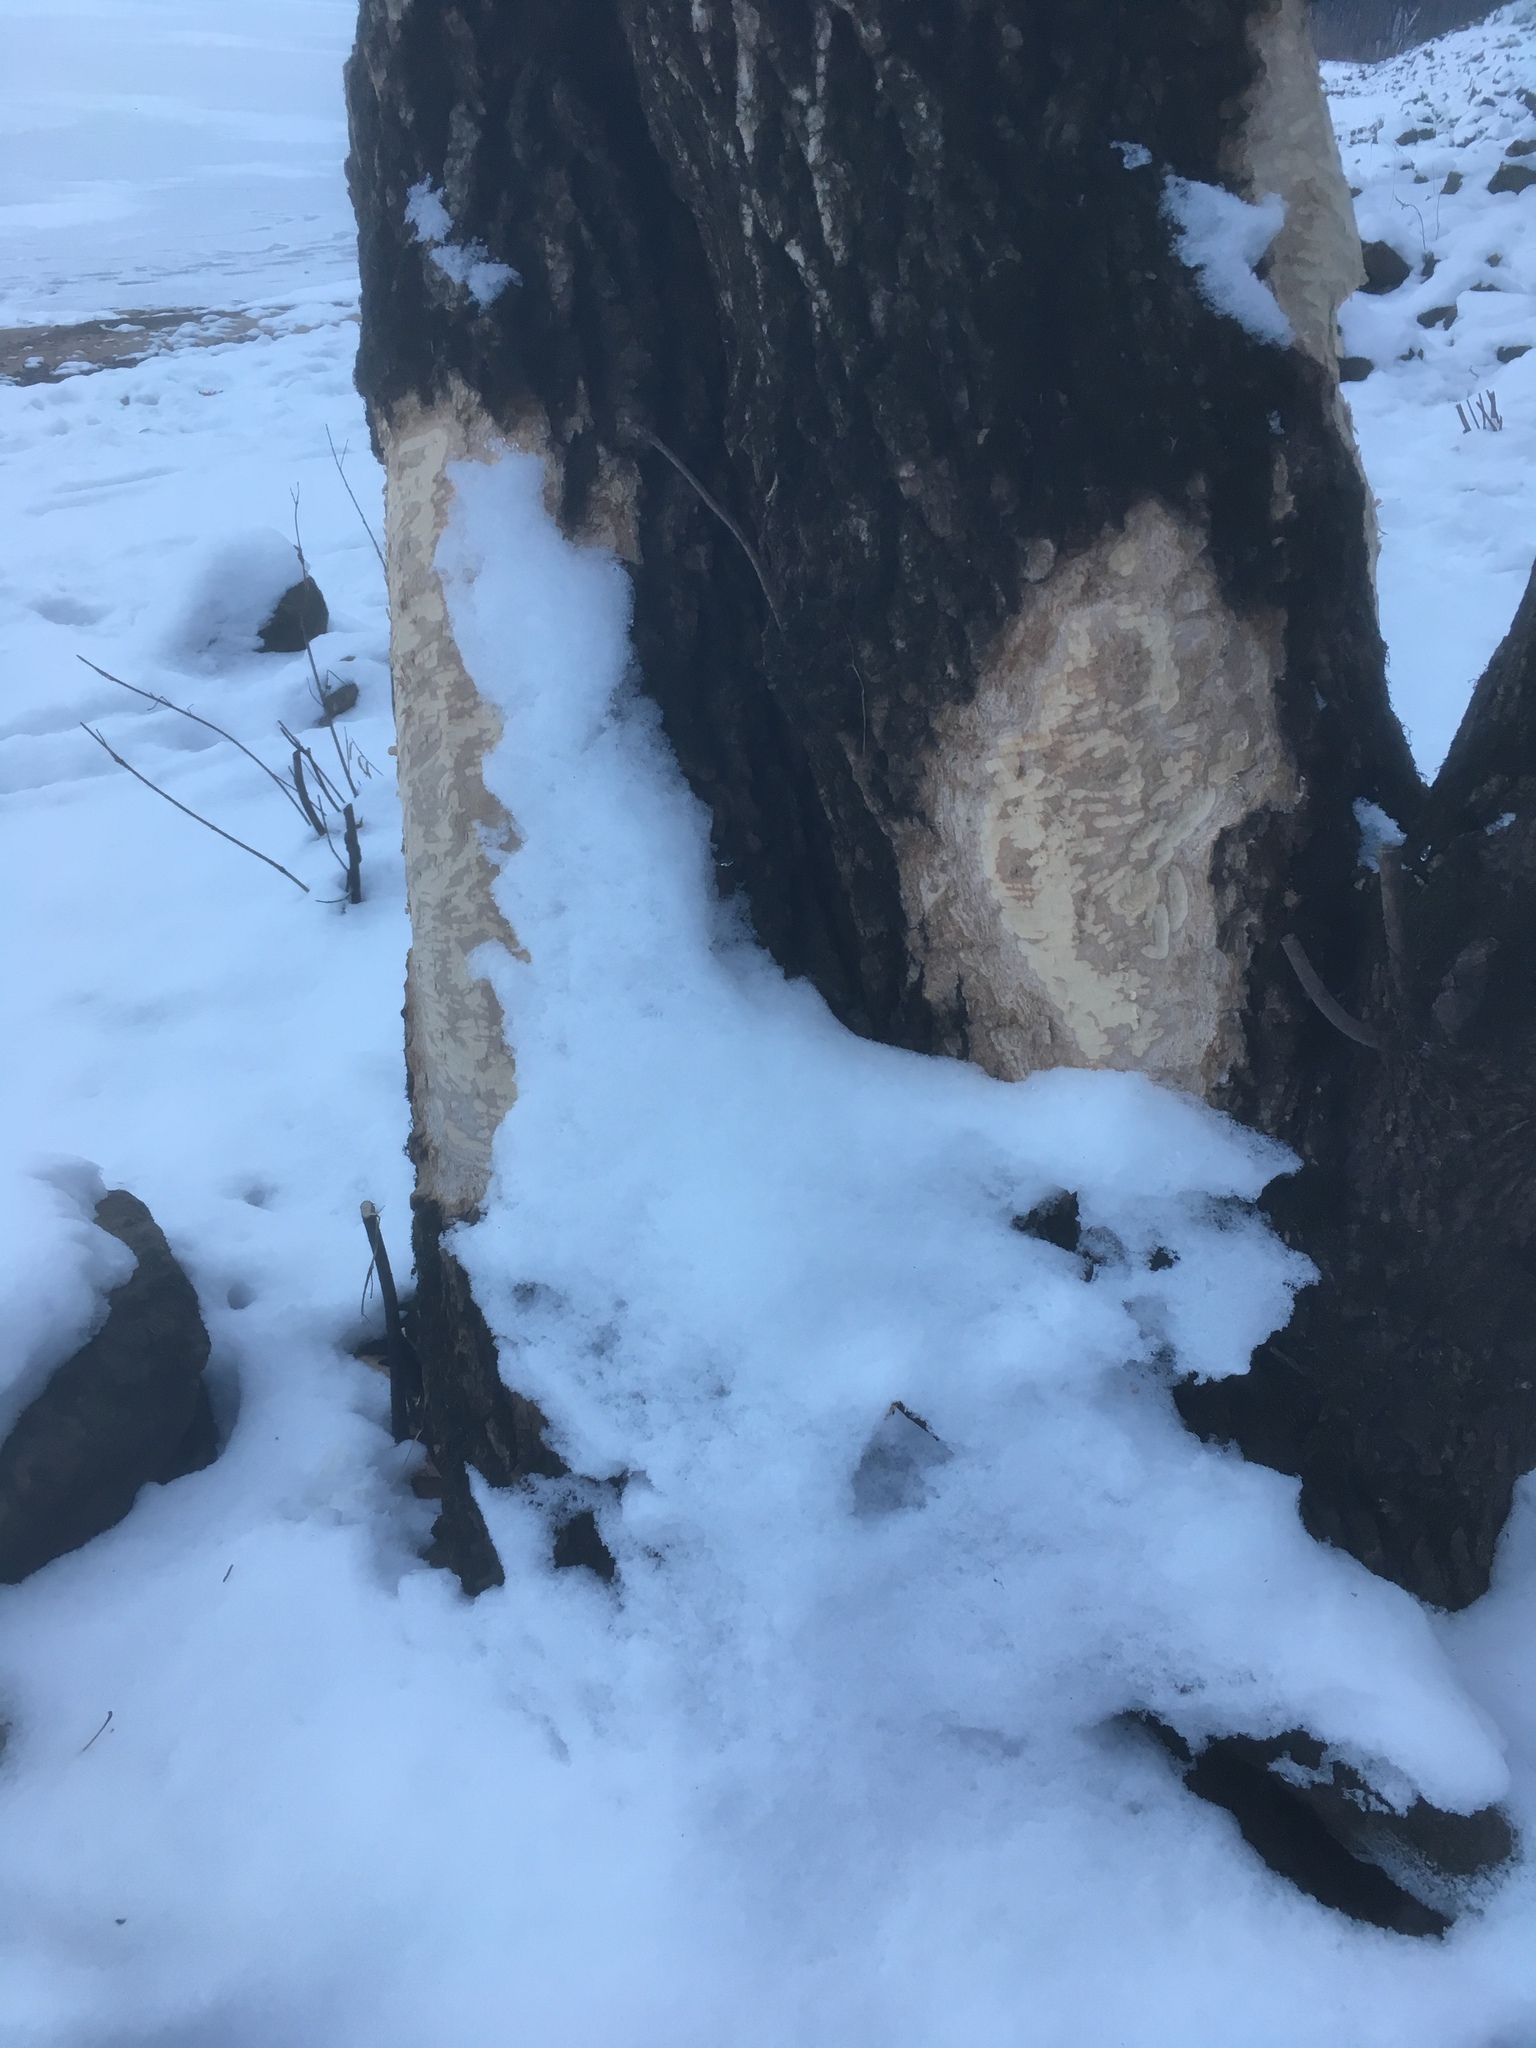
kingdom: Animalia
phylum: Chordata
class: Mammalia
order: Rodentia
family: Castoridae
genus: Castor
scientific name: Castor canadensis
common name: American beaver
